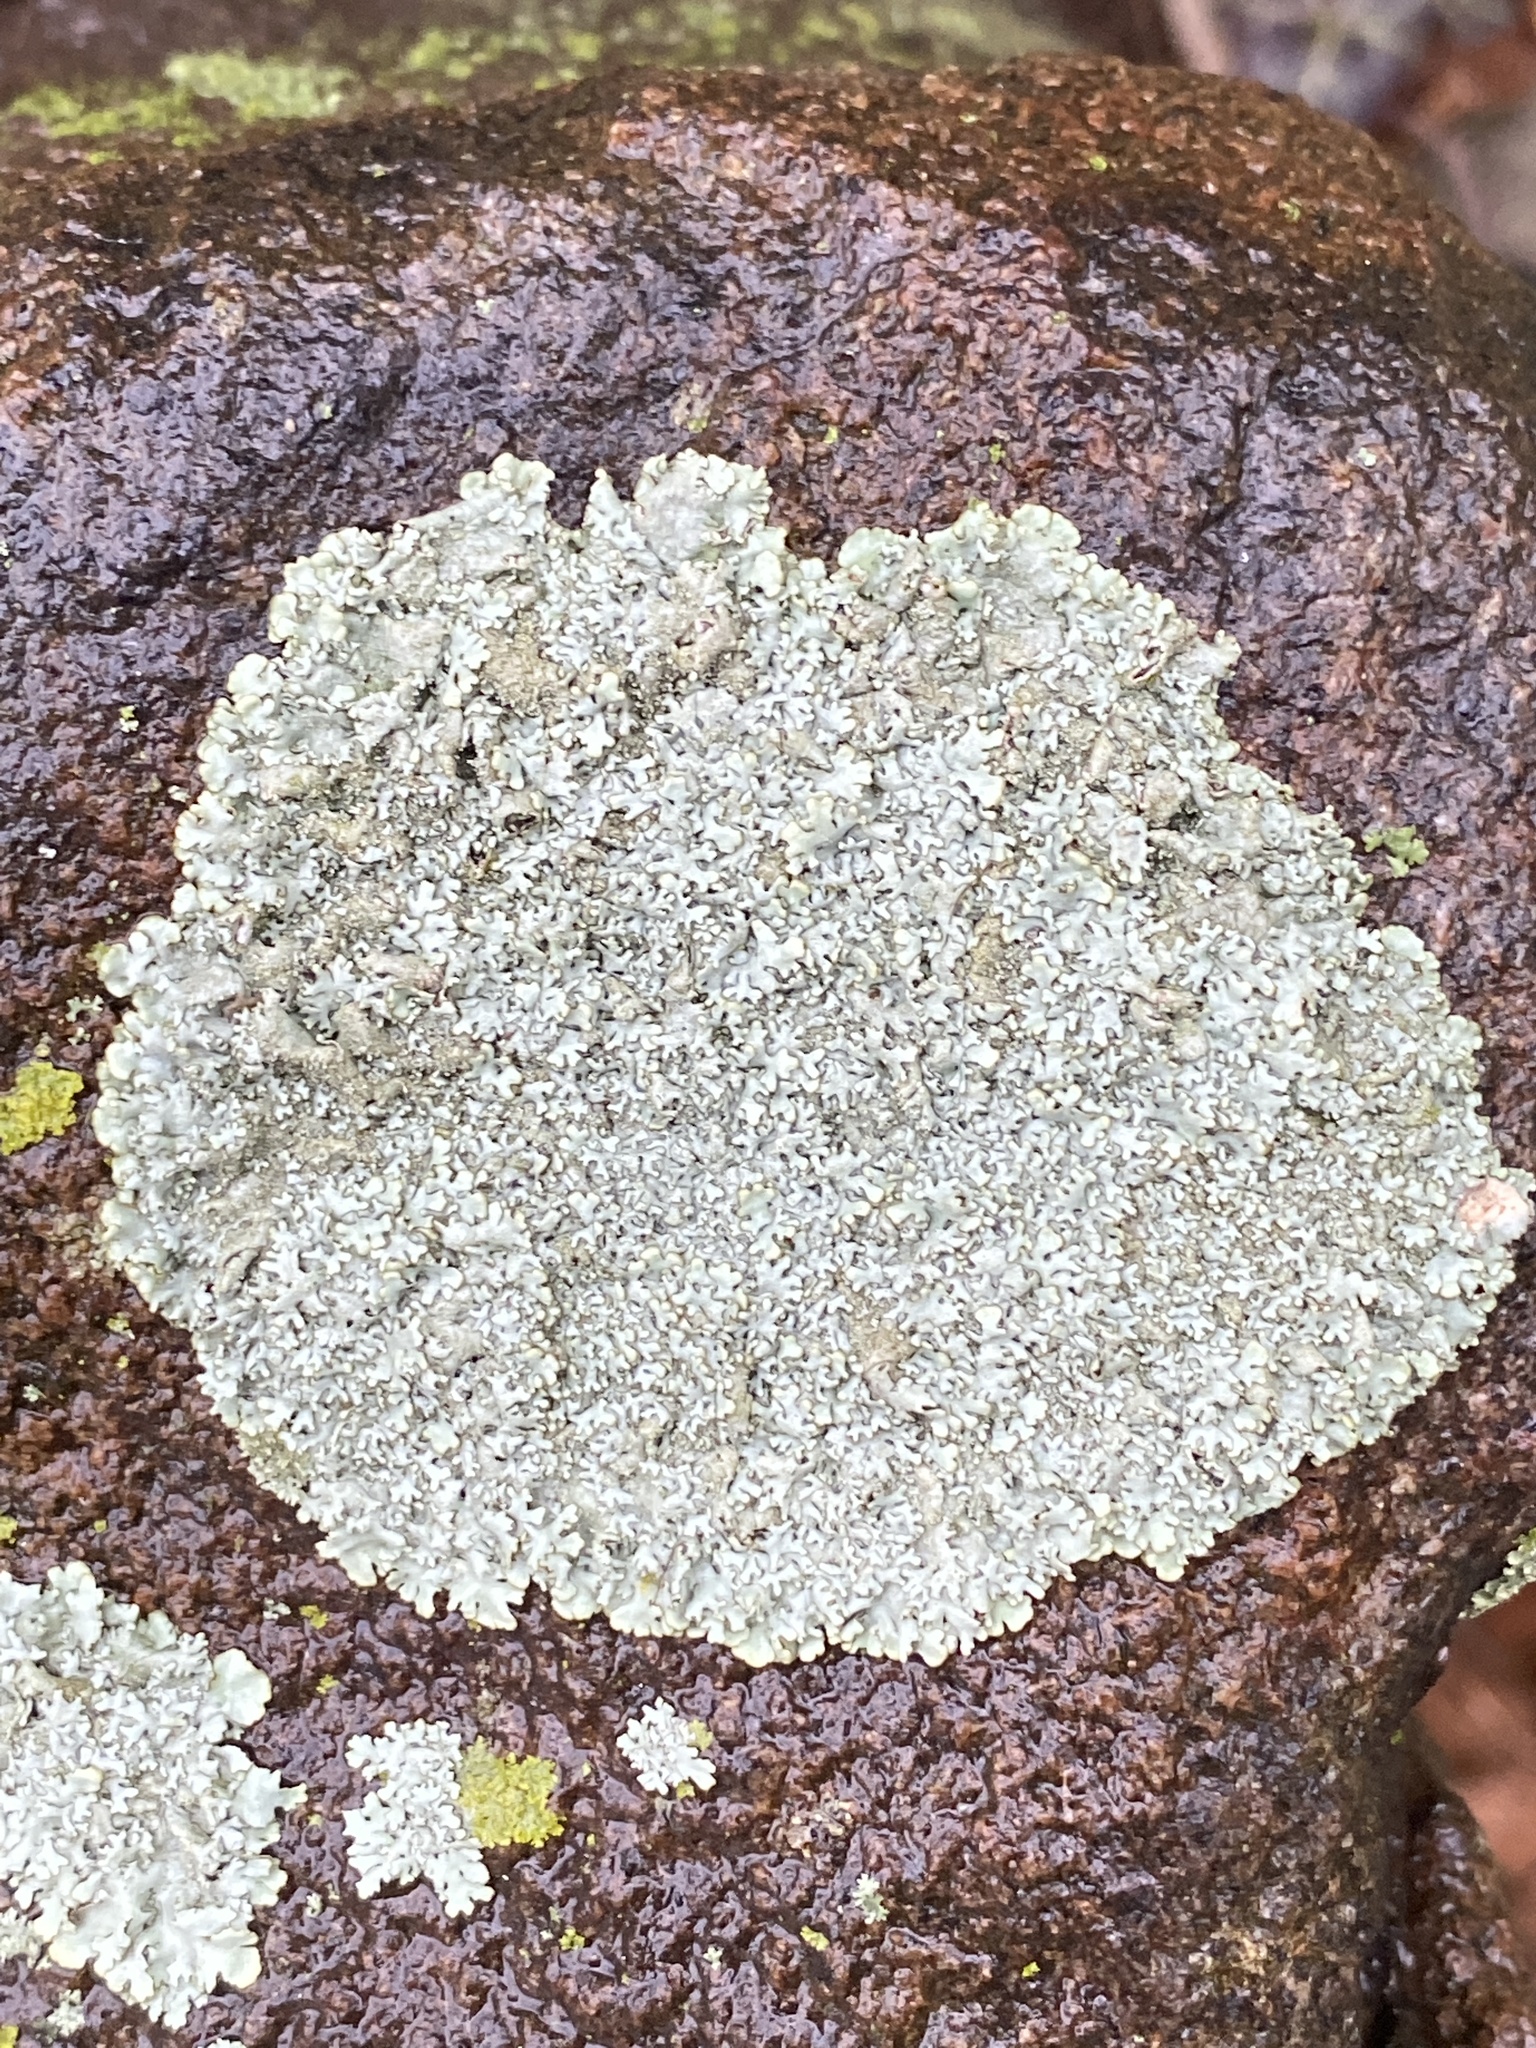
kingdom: Fungi
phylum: Ascomycota
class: Lecanoromycetes
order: Lecanorales
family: Parmeliaceae
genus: Flavoparmelia
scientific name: Flavoparmelia caperata
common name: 40-mile per hour lichen
